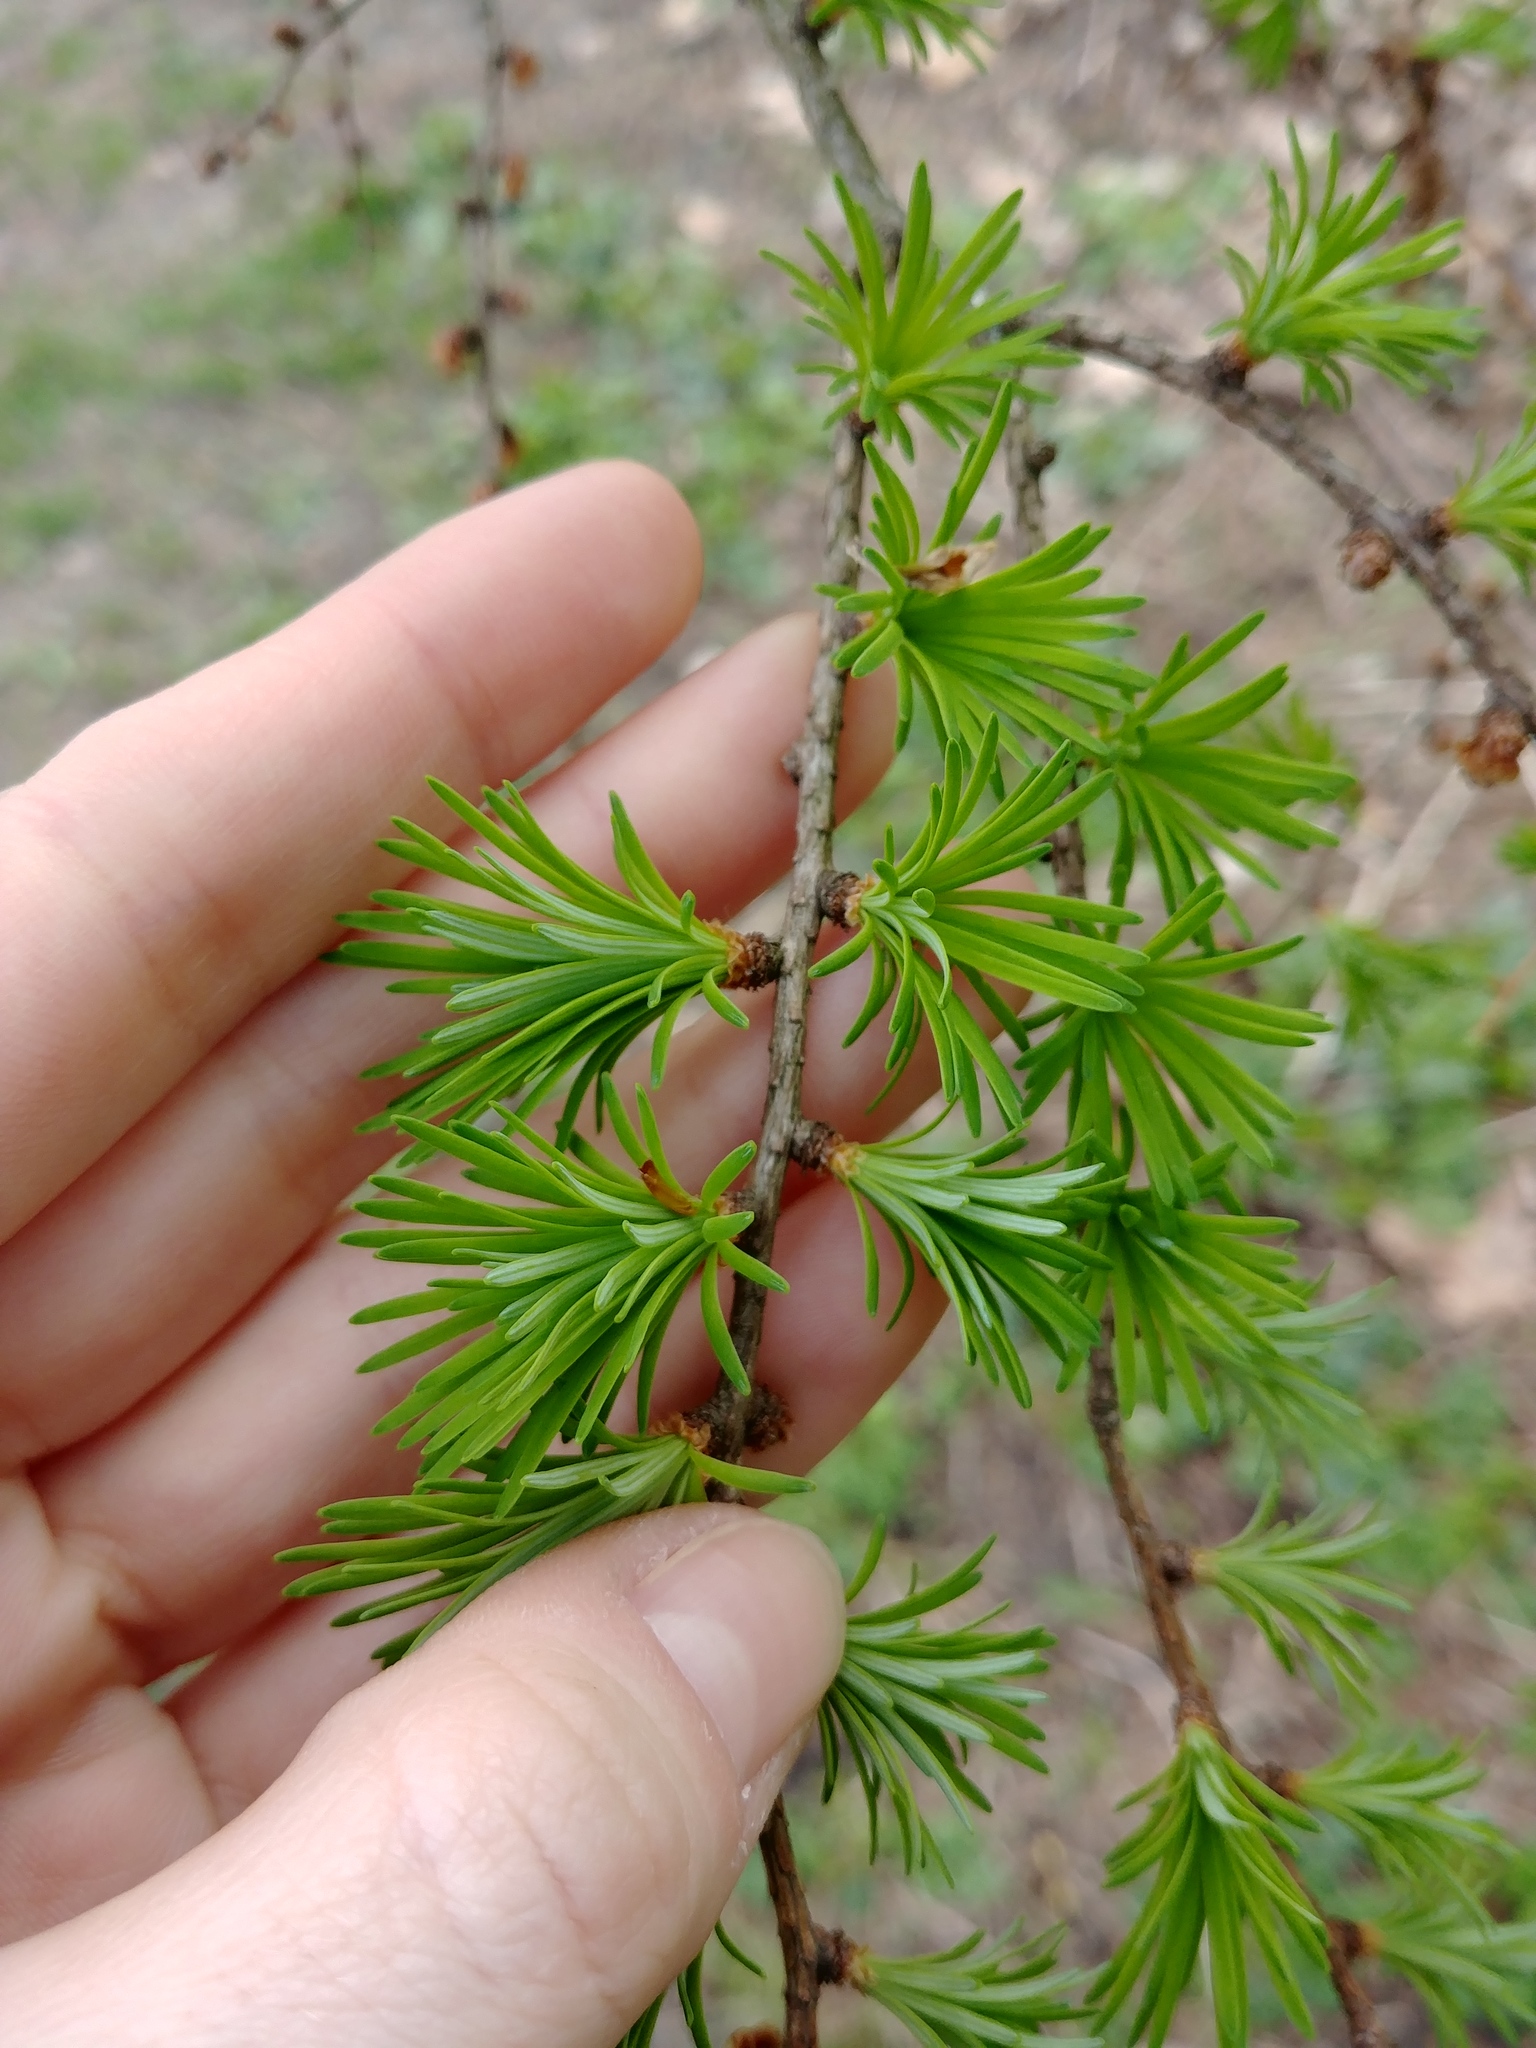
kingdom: Plantae
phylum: Tracheophyta
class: Pinopsida
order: Pinales
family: Pinaceae
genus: Larix
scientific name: Larix laricina
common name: American larch
